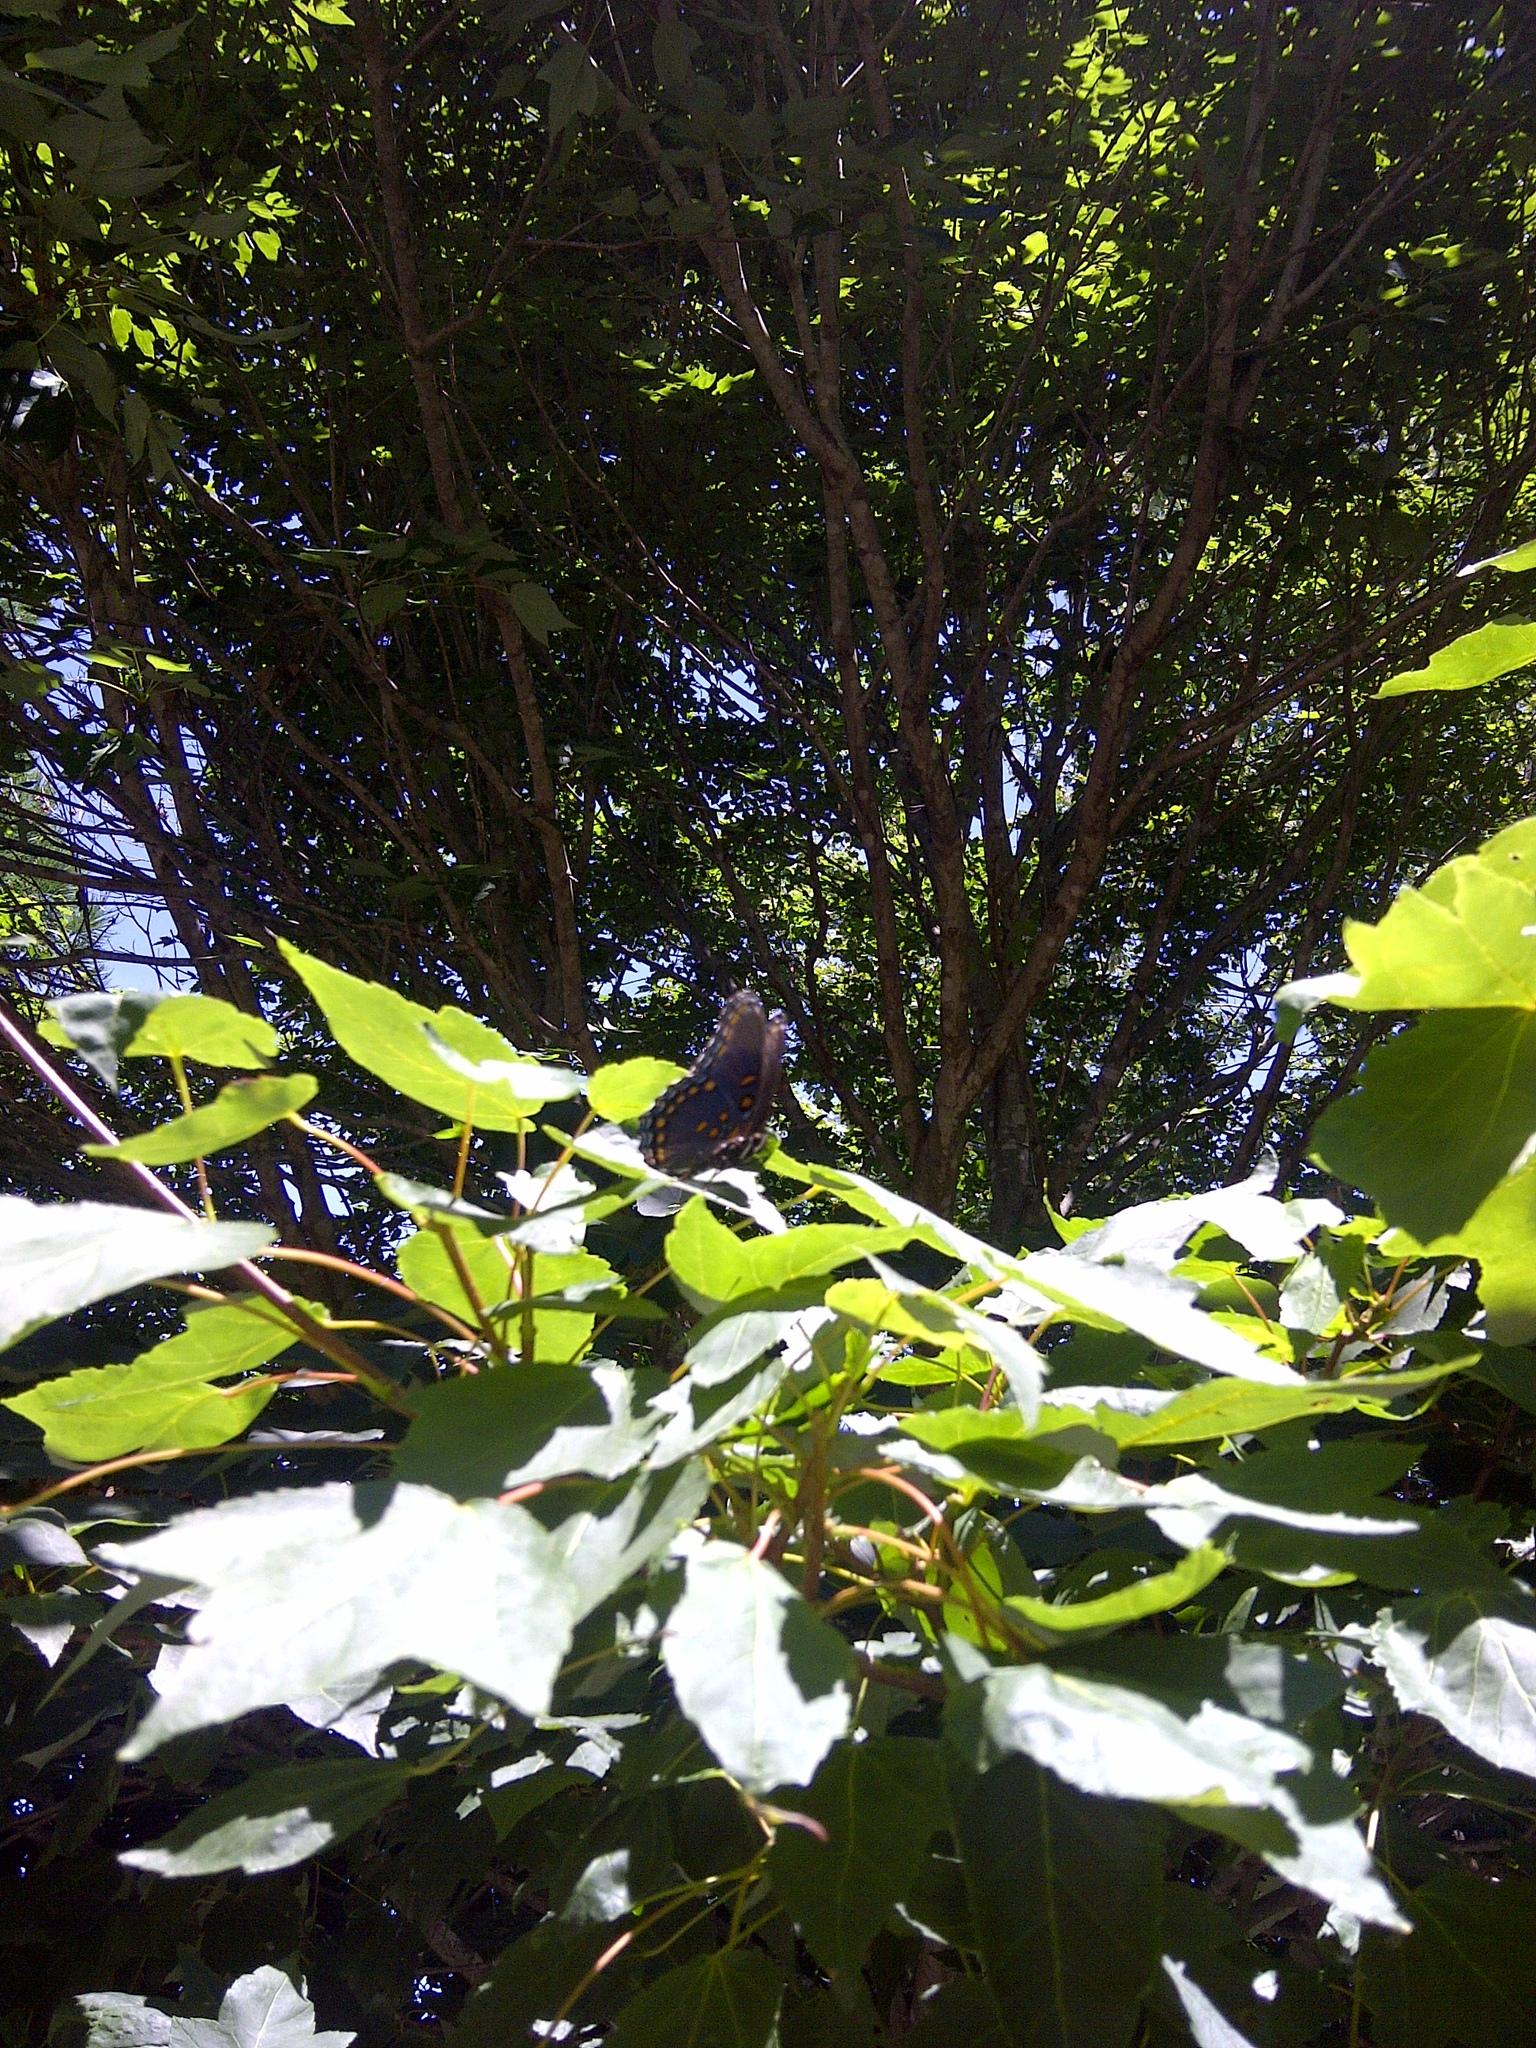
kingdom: Animalia
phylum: Arthropoda
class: Insecta
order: Lepidoptera
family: Nymphalidae
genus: Limenitis
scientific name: Limenitis astyanax
